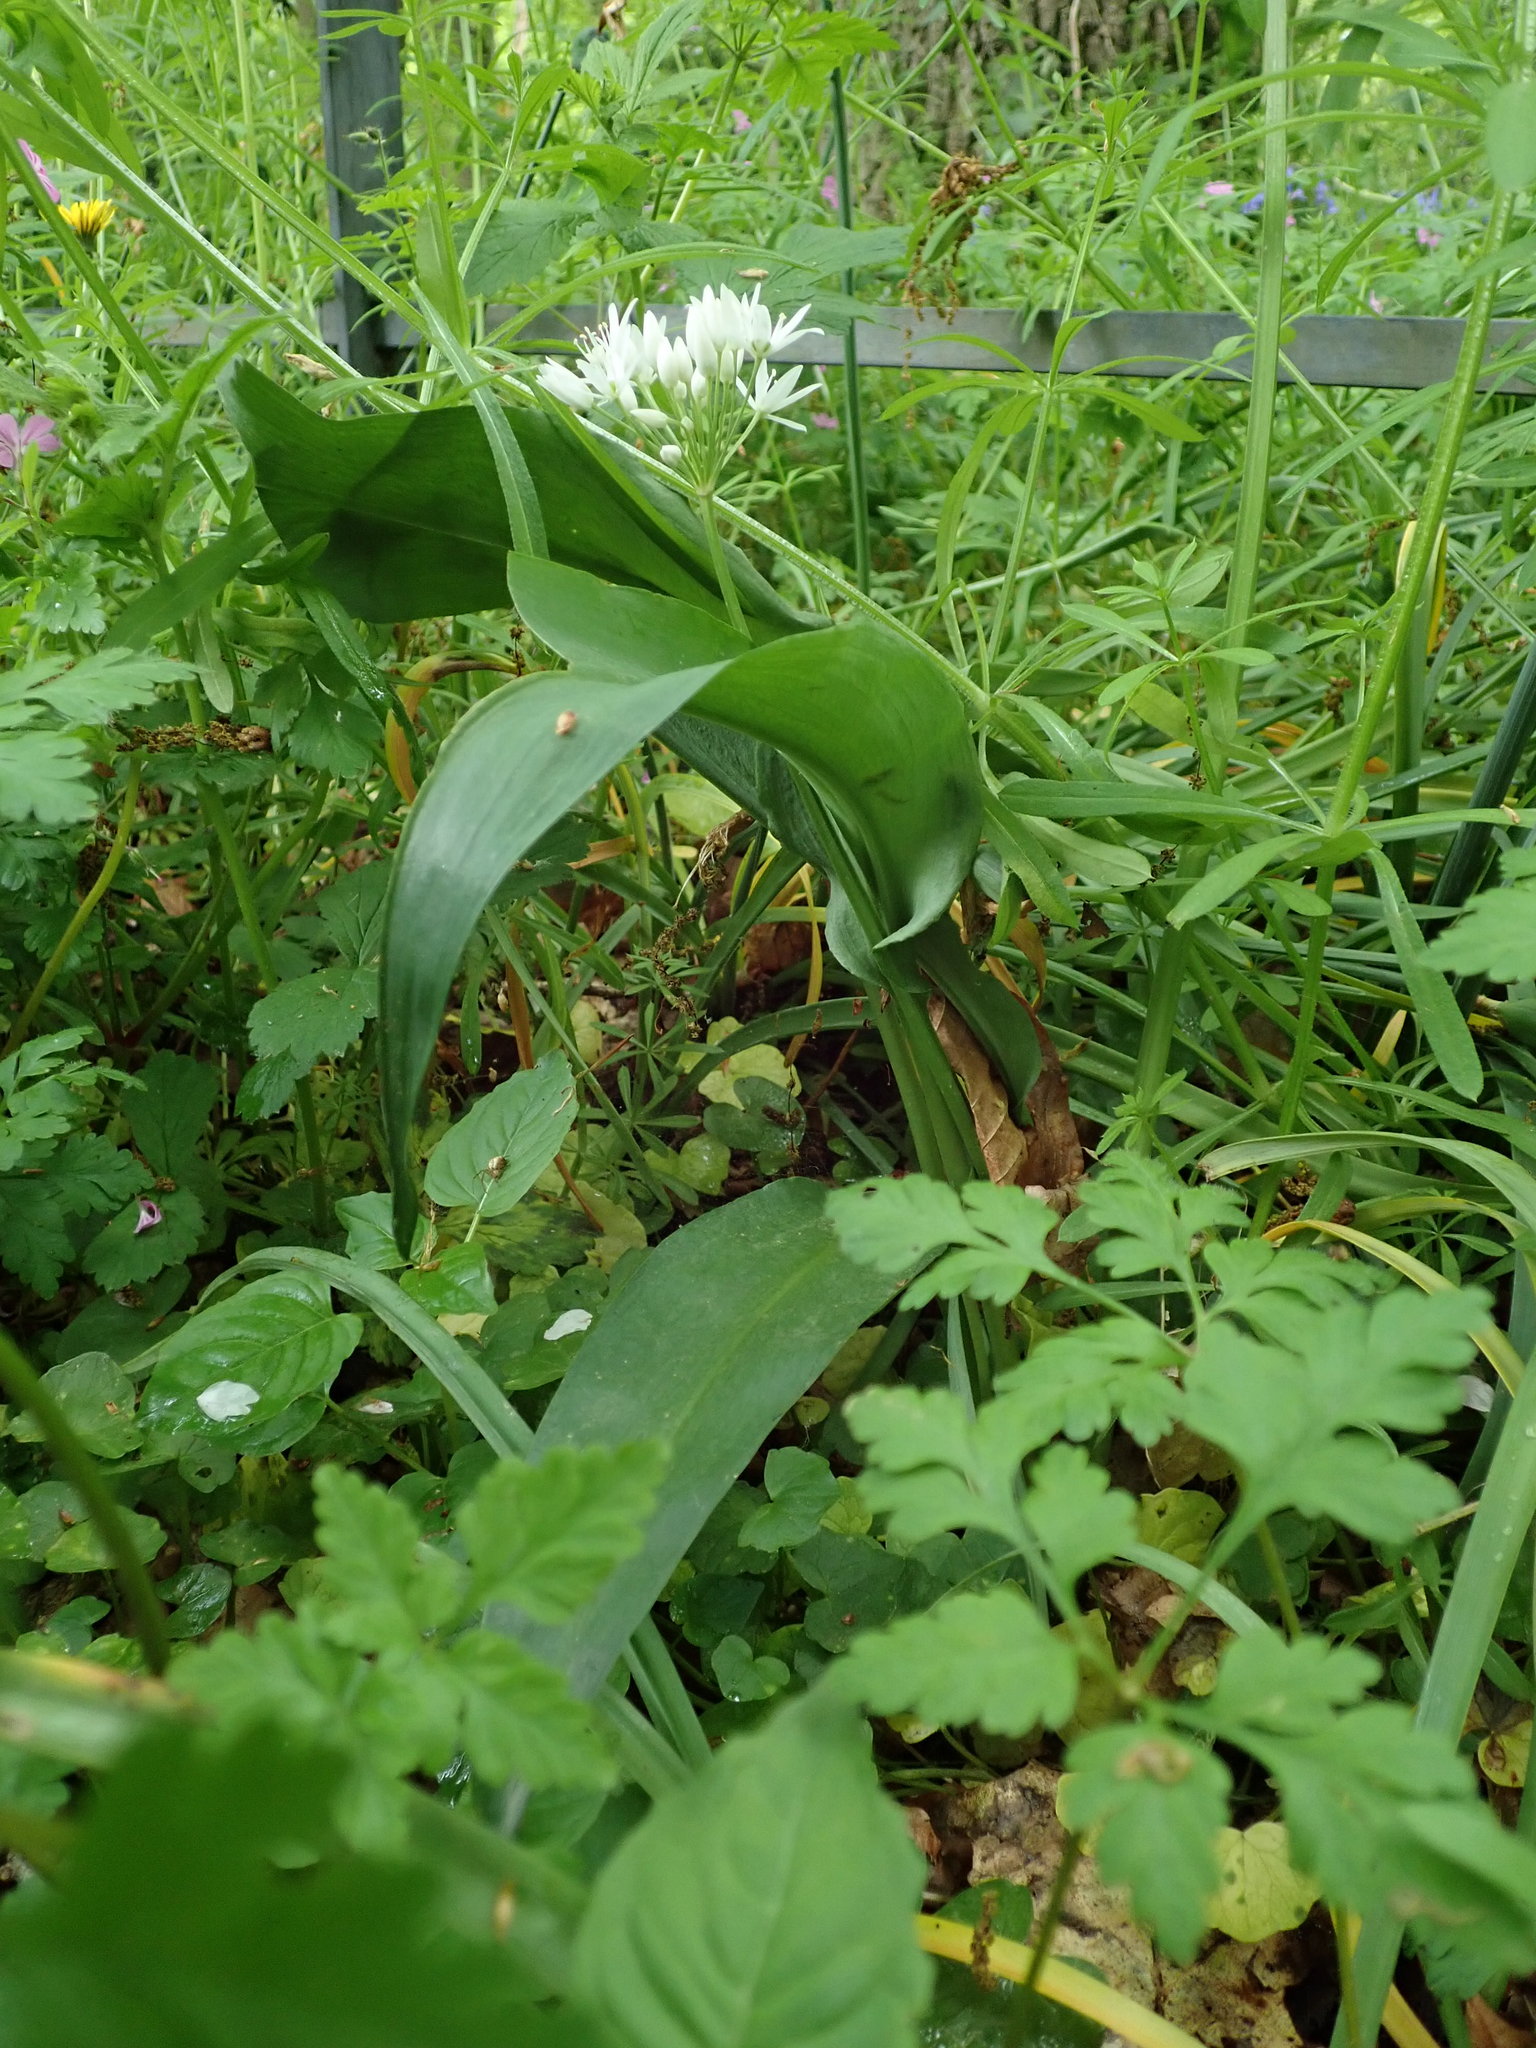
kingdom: Plantae
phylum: Tracheophyta
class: Liliopsida
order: Asparagales
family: Amaryllidaceae
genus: Allium
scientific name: Allium ursinum
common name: Ramsons
